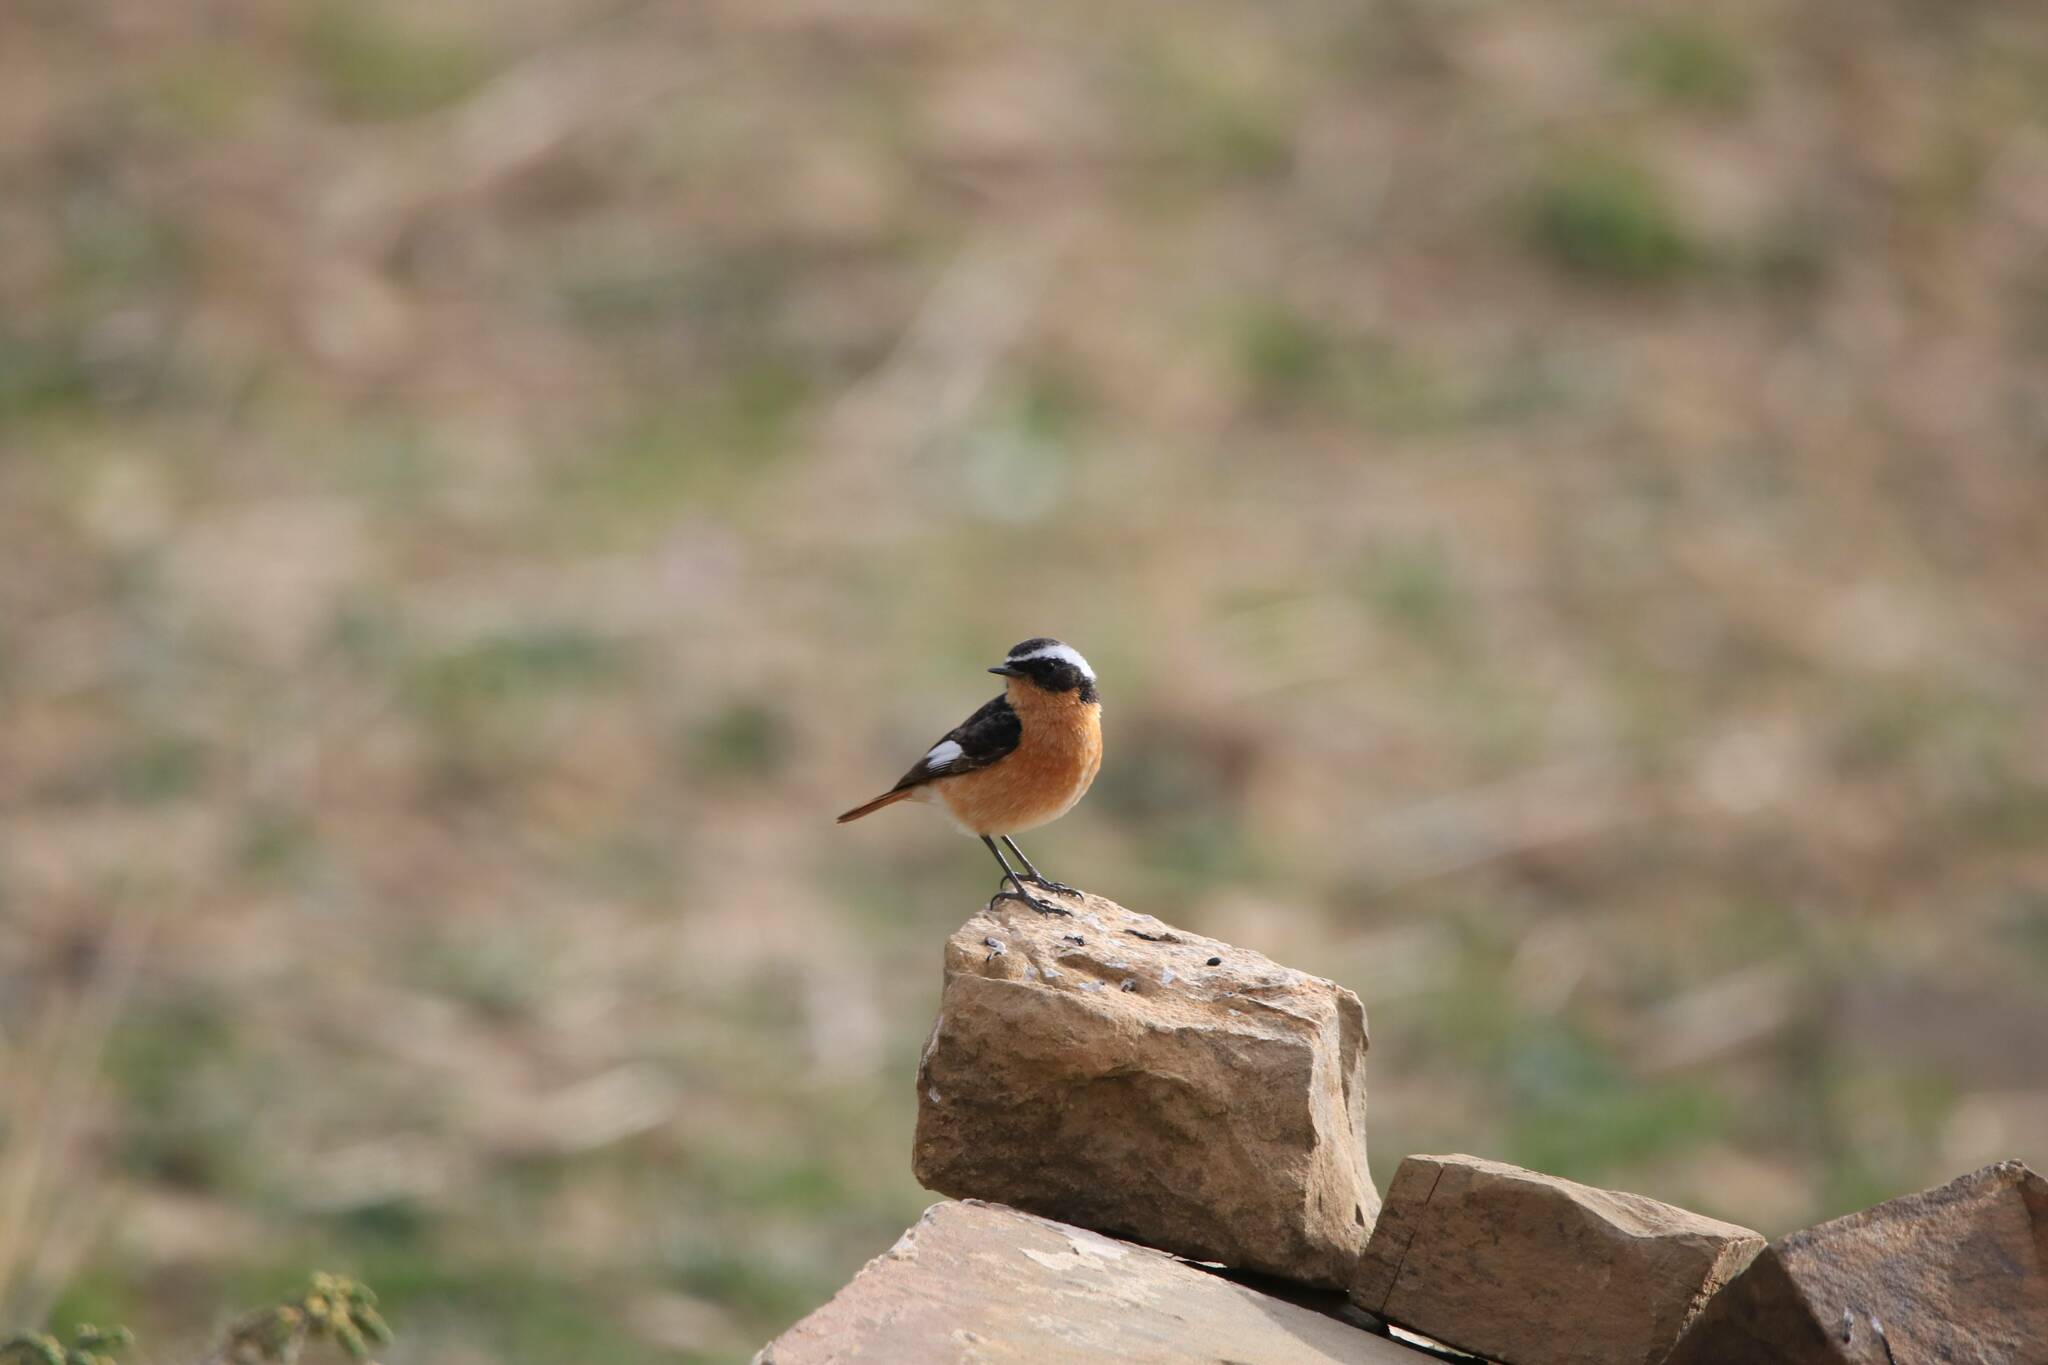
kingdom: Animalia
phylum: Chordata
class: Aves
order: Passeriformes
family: Muscicapidae
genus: Phoenicurus
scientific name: Phoenicurus moussieri
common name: Moussier's redstart
